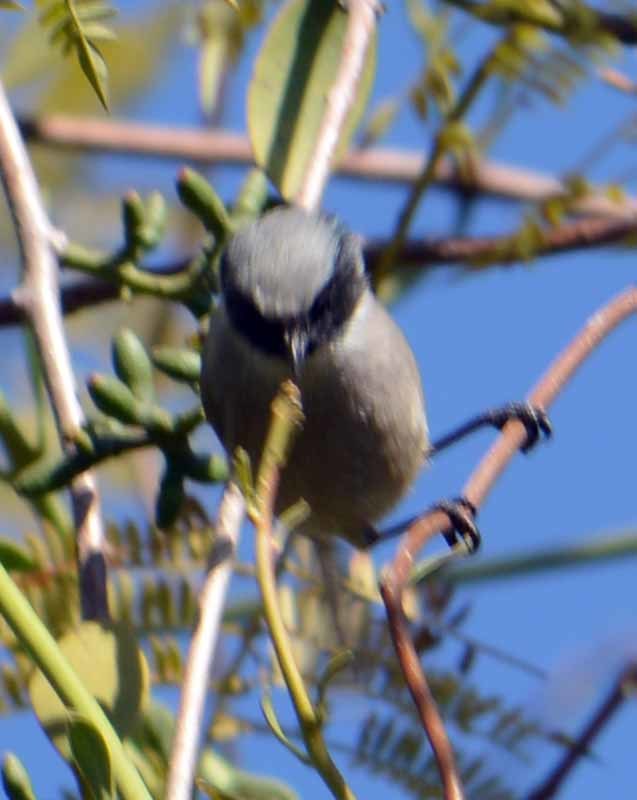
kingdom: Animalia
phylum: Chordata
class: Aves
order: Passeriformes
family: Aegithalidae
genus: Psaltriparus
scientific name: Psaltriparus minimus
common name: American bushtit
